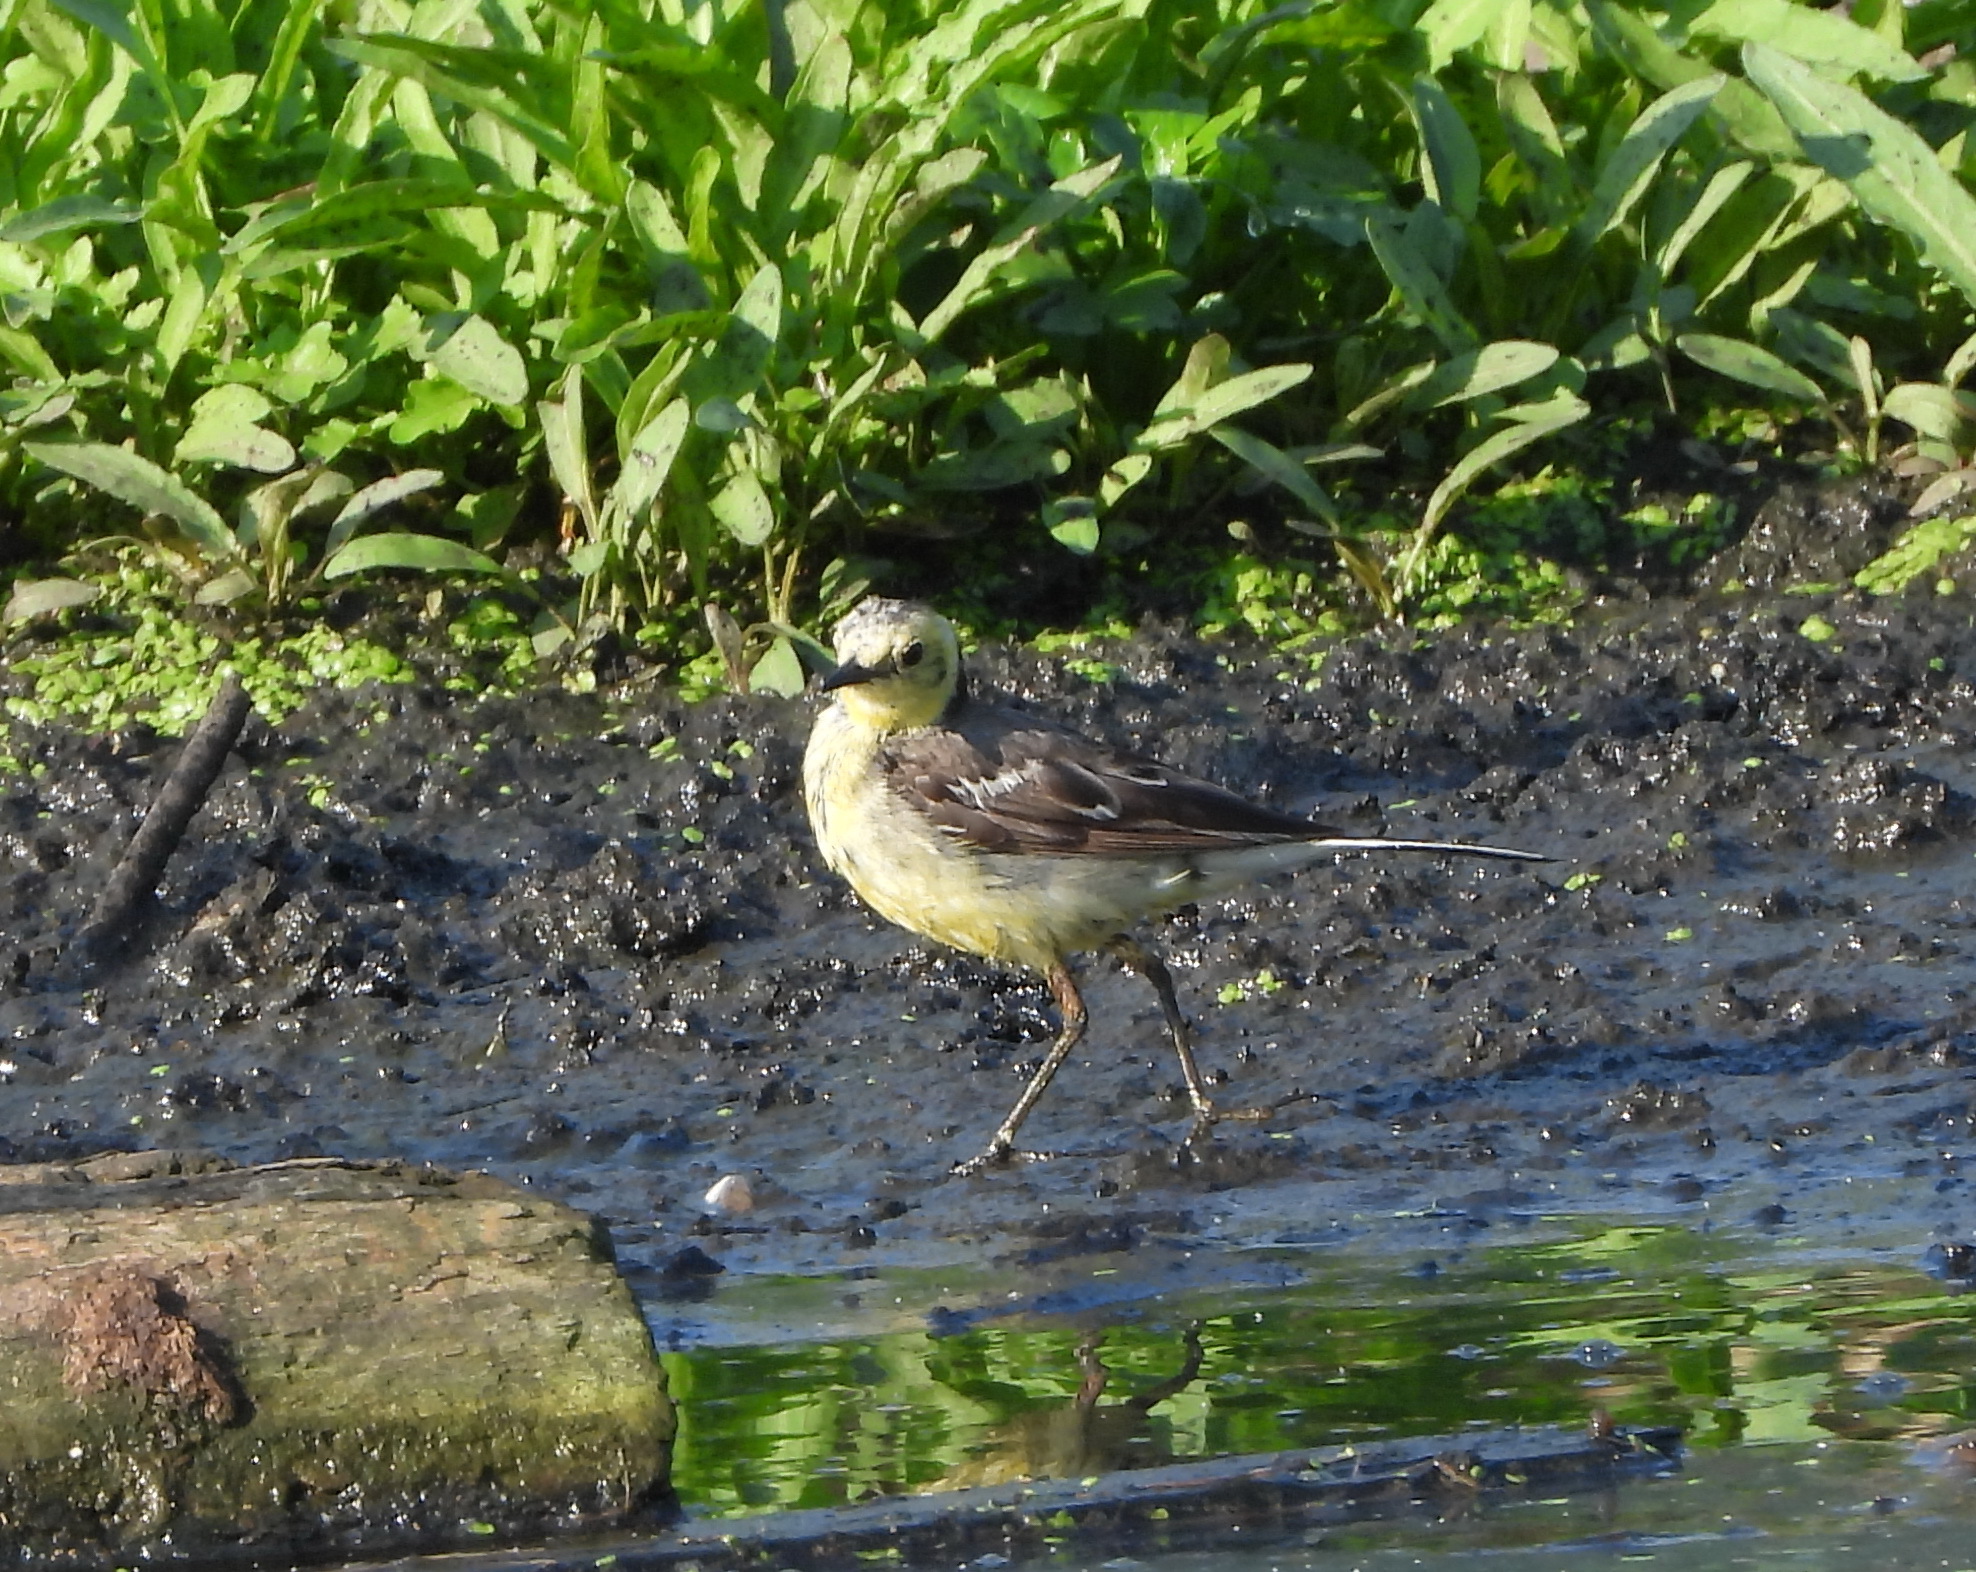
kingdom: Animalia
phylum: Chordata
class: Aves
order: Passeriformes
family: Motacillidae
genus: Motacilla
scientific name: Motacilla citreola
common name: Citrine wagtail
